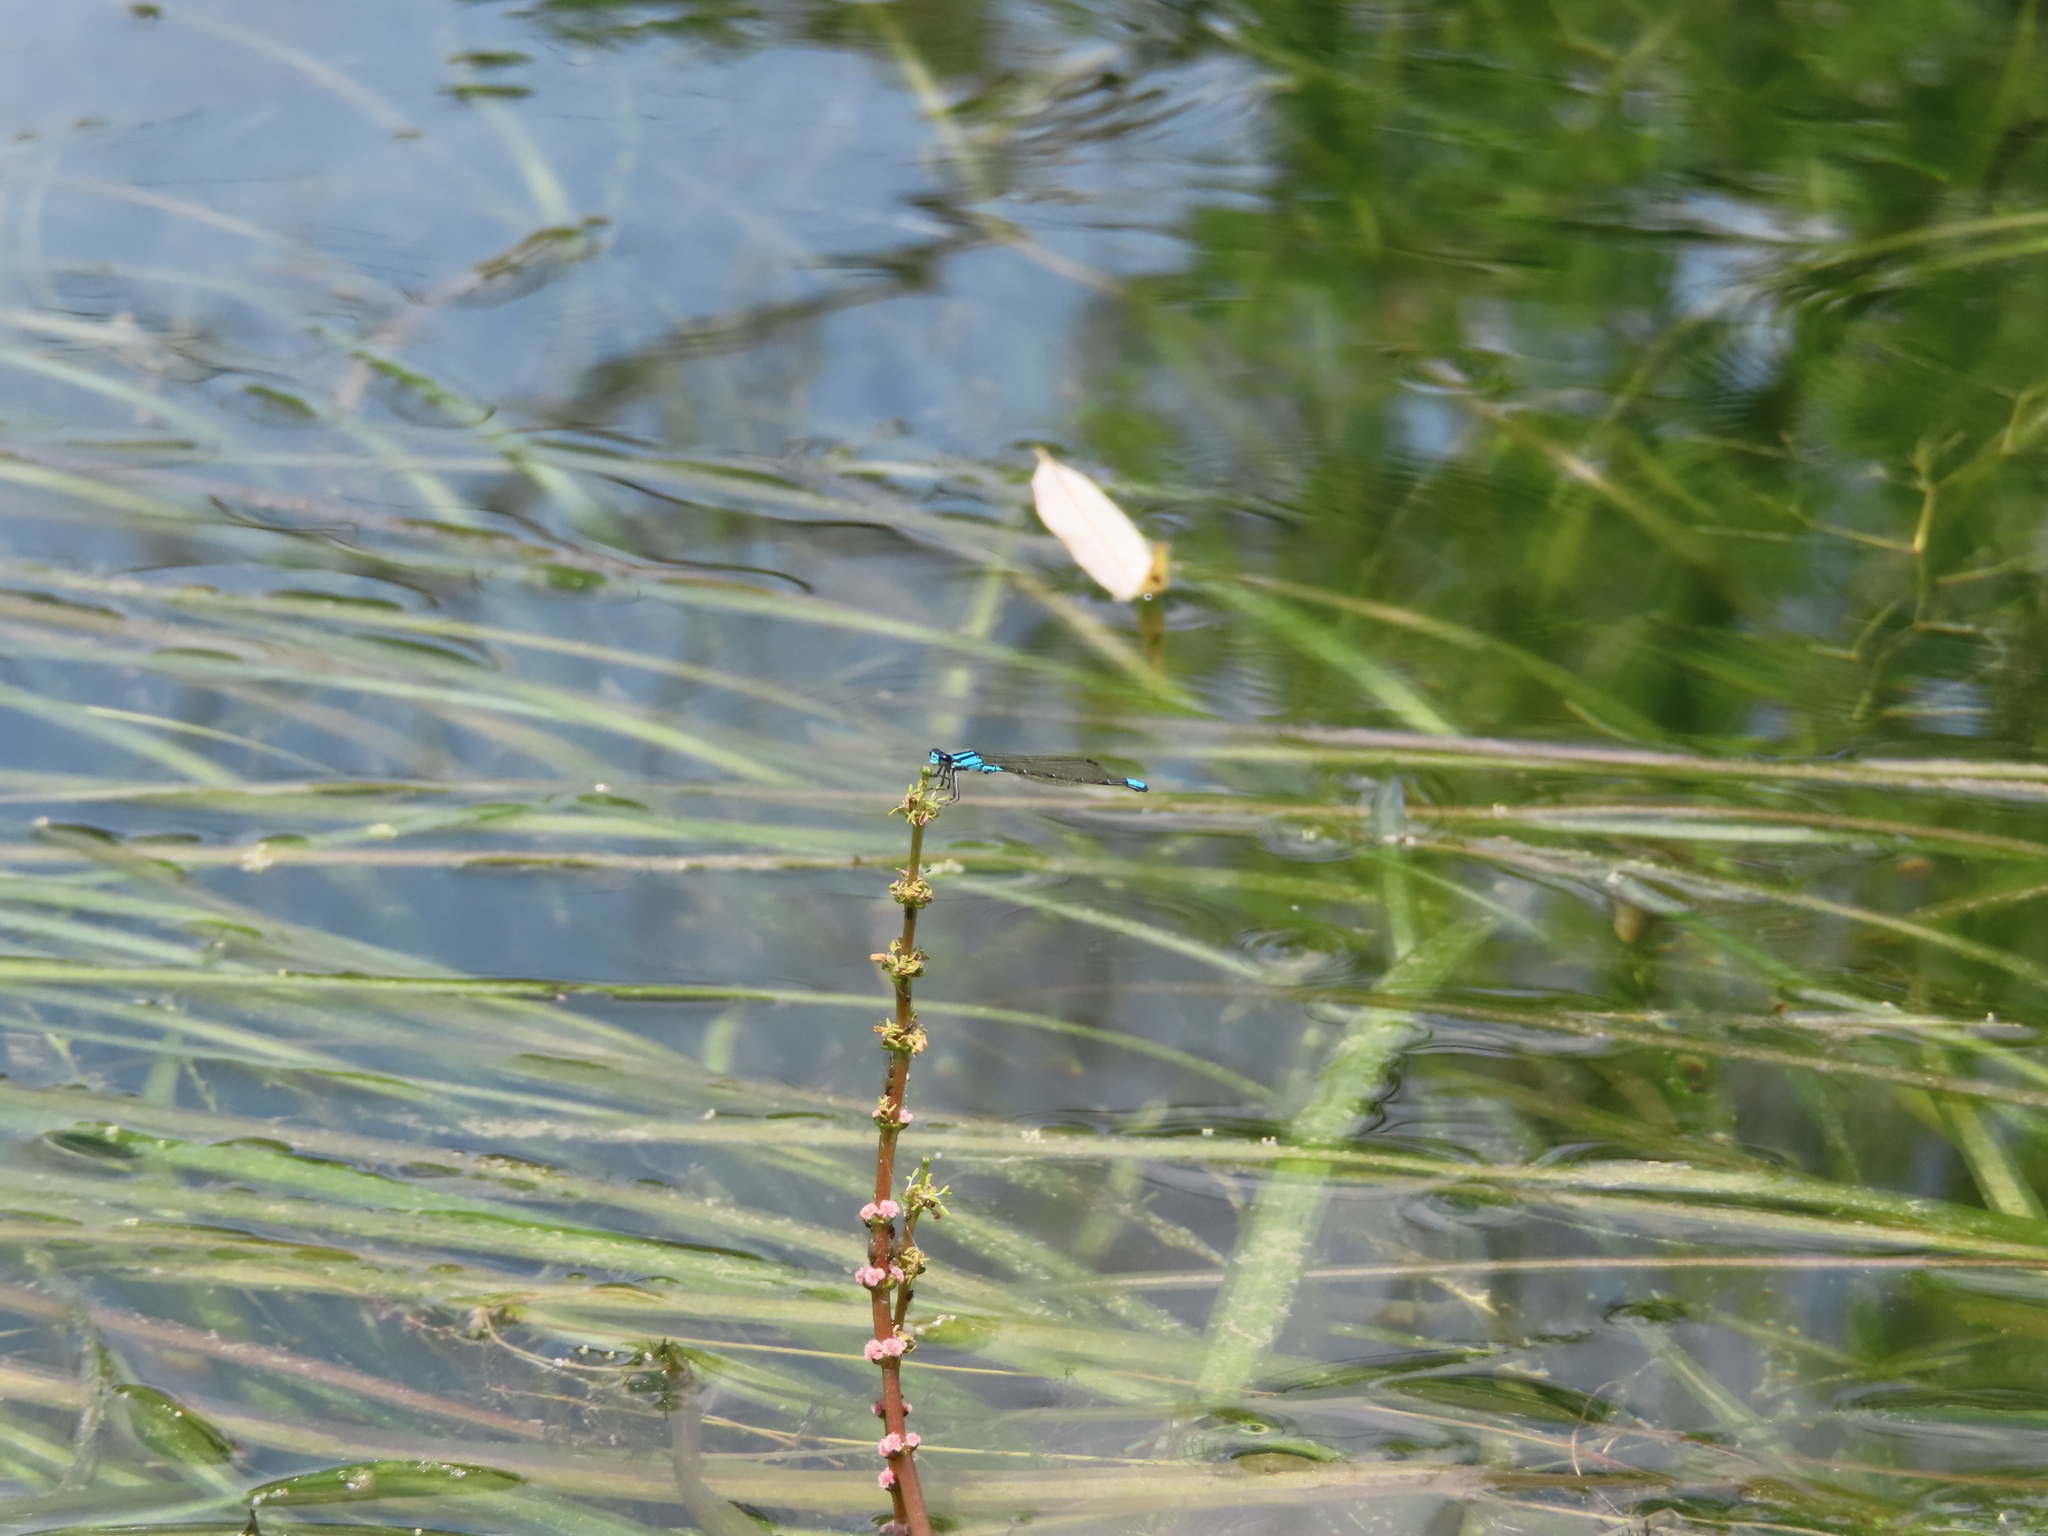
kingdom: Animalia
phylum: Arthropoda
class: Insecta
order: Odonata
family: Coenagrionidae
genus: Enallagma
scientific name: Enallagma geminatum
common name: Skimming bluet
